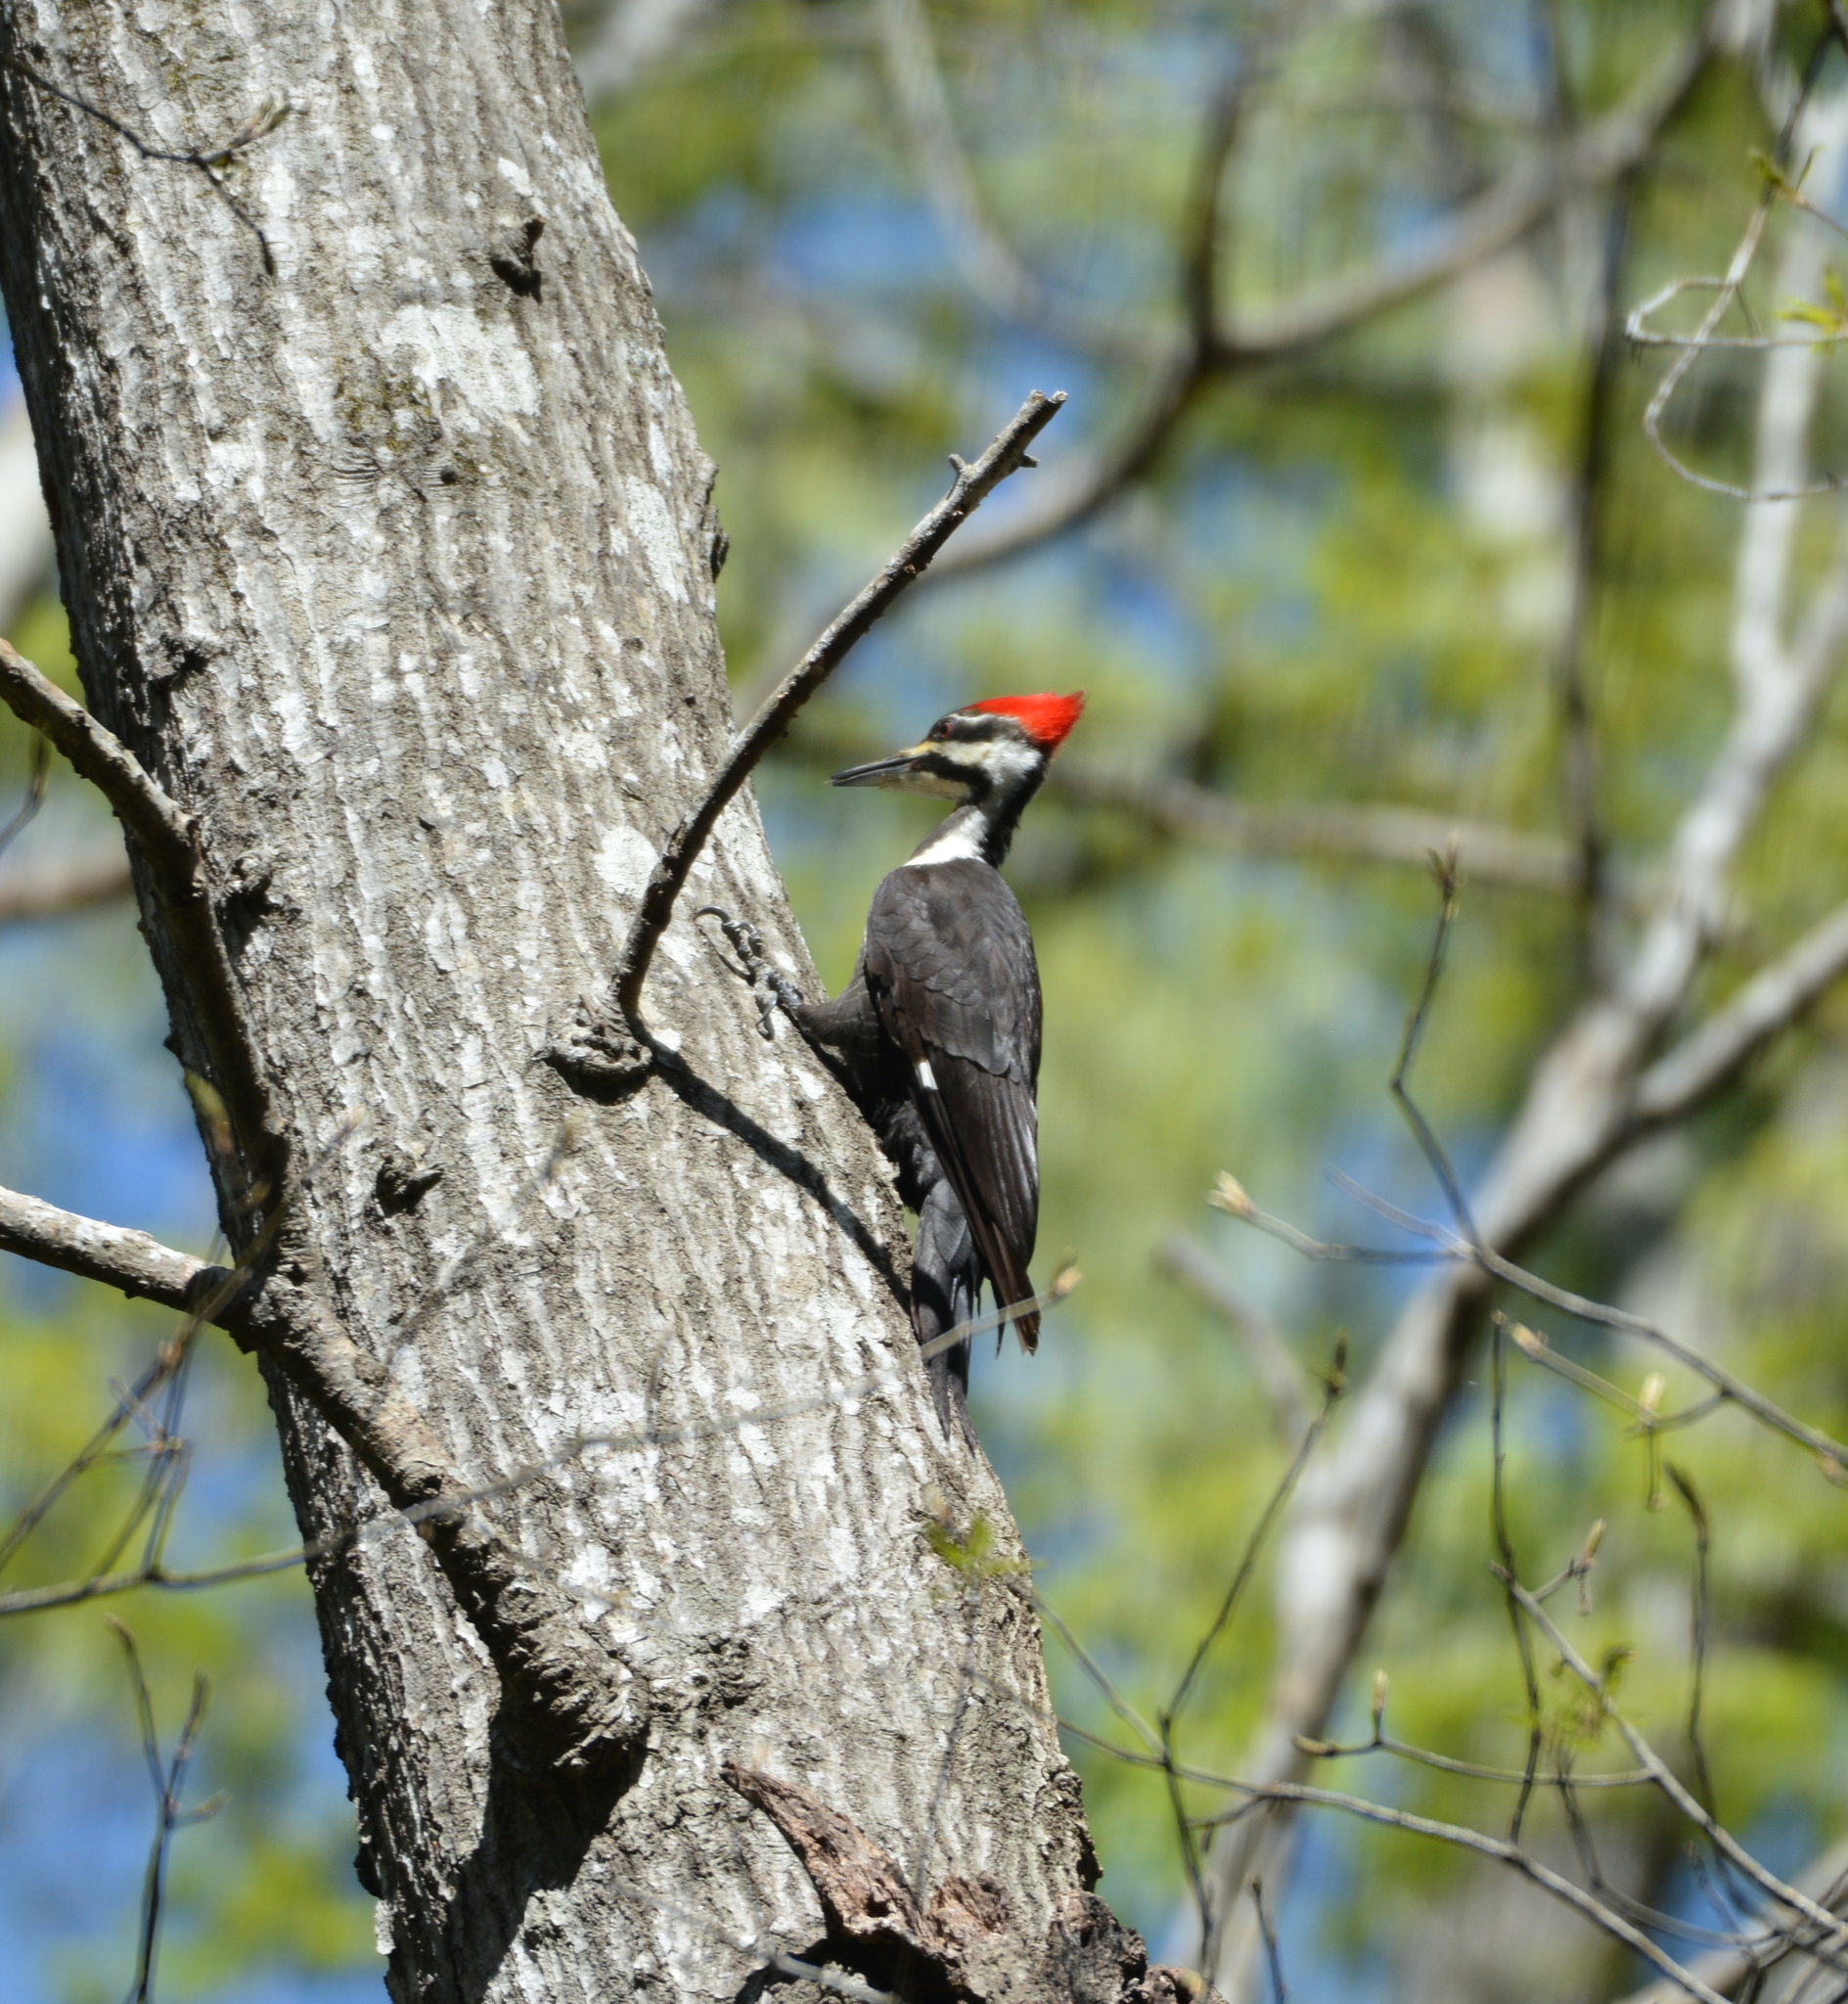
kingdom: Animalia
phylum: Chordata
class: Aves
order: Piciformes
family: Picidae
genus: Dryocopus
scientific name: Dryocopus pileatus
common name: Pileated woodpecker
